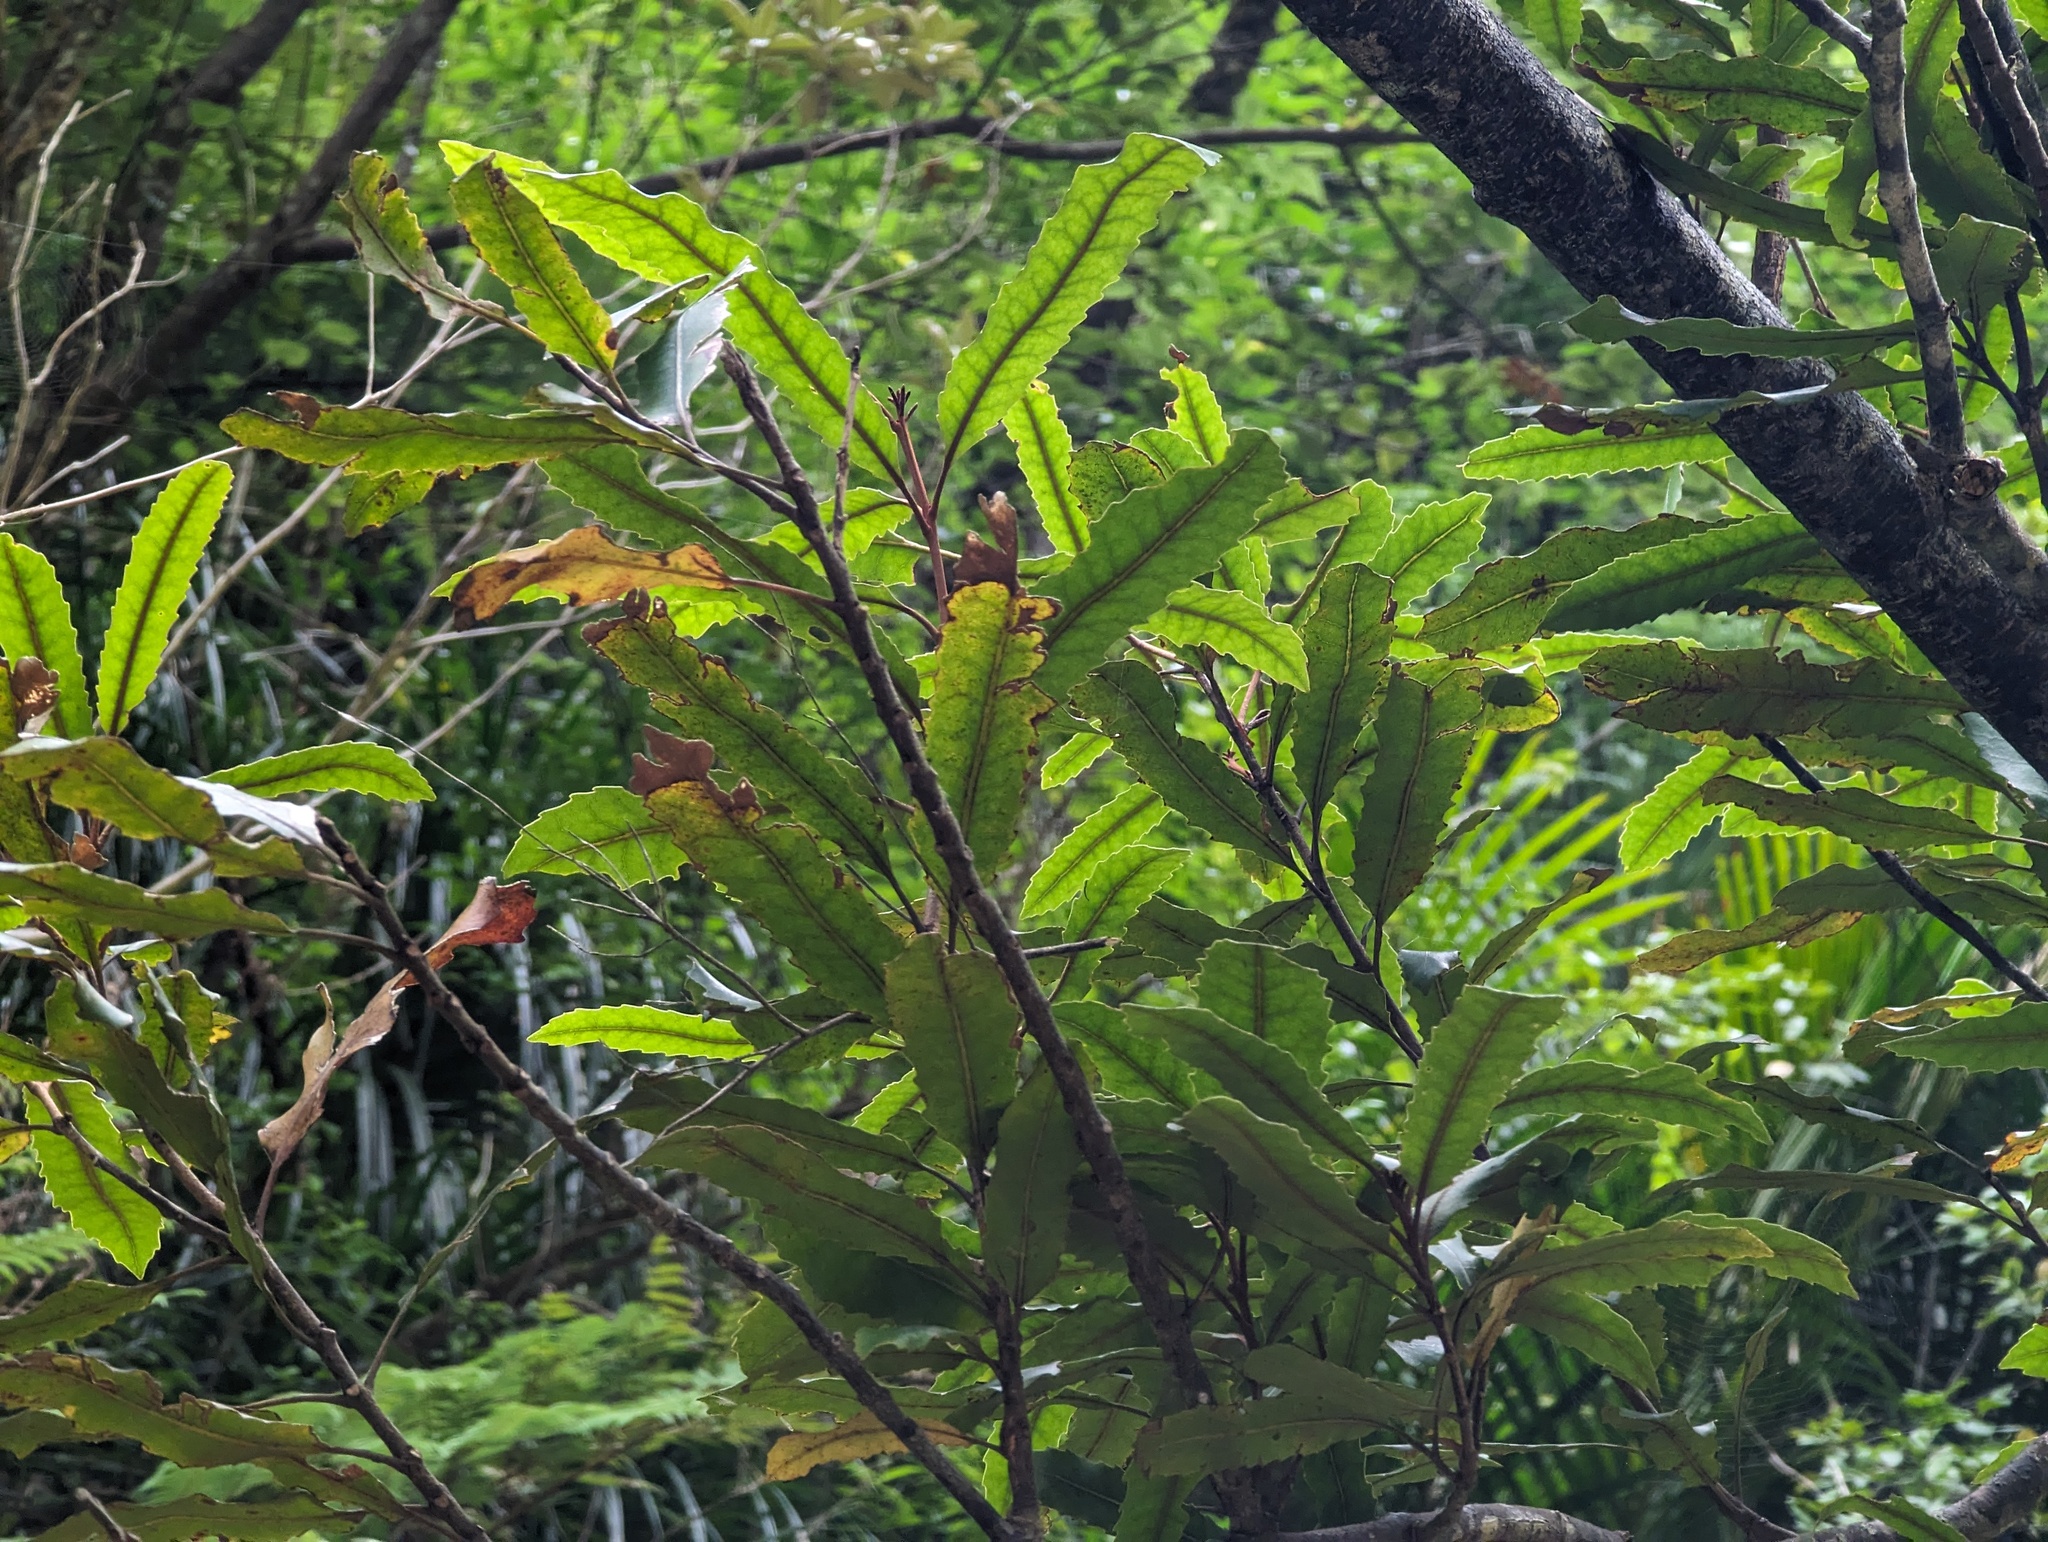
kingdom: Plantae
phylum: Tracheophyta
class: Magnoliopsida
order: Proteales
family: Proteaceae
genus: Knightia
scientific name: Knightia excelsa
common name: New zealand-honeysuckle
